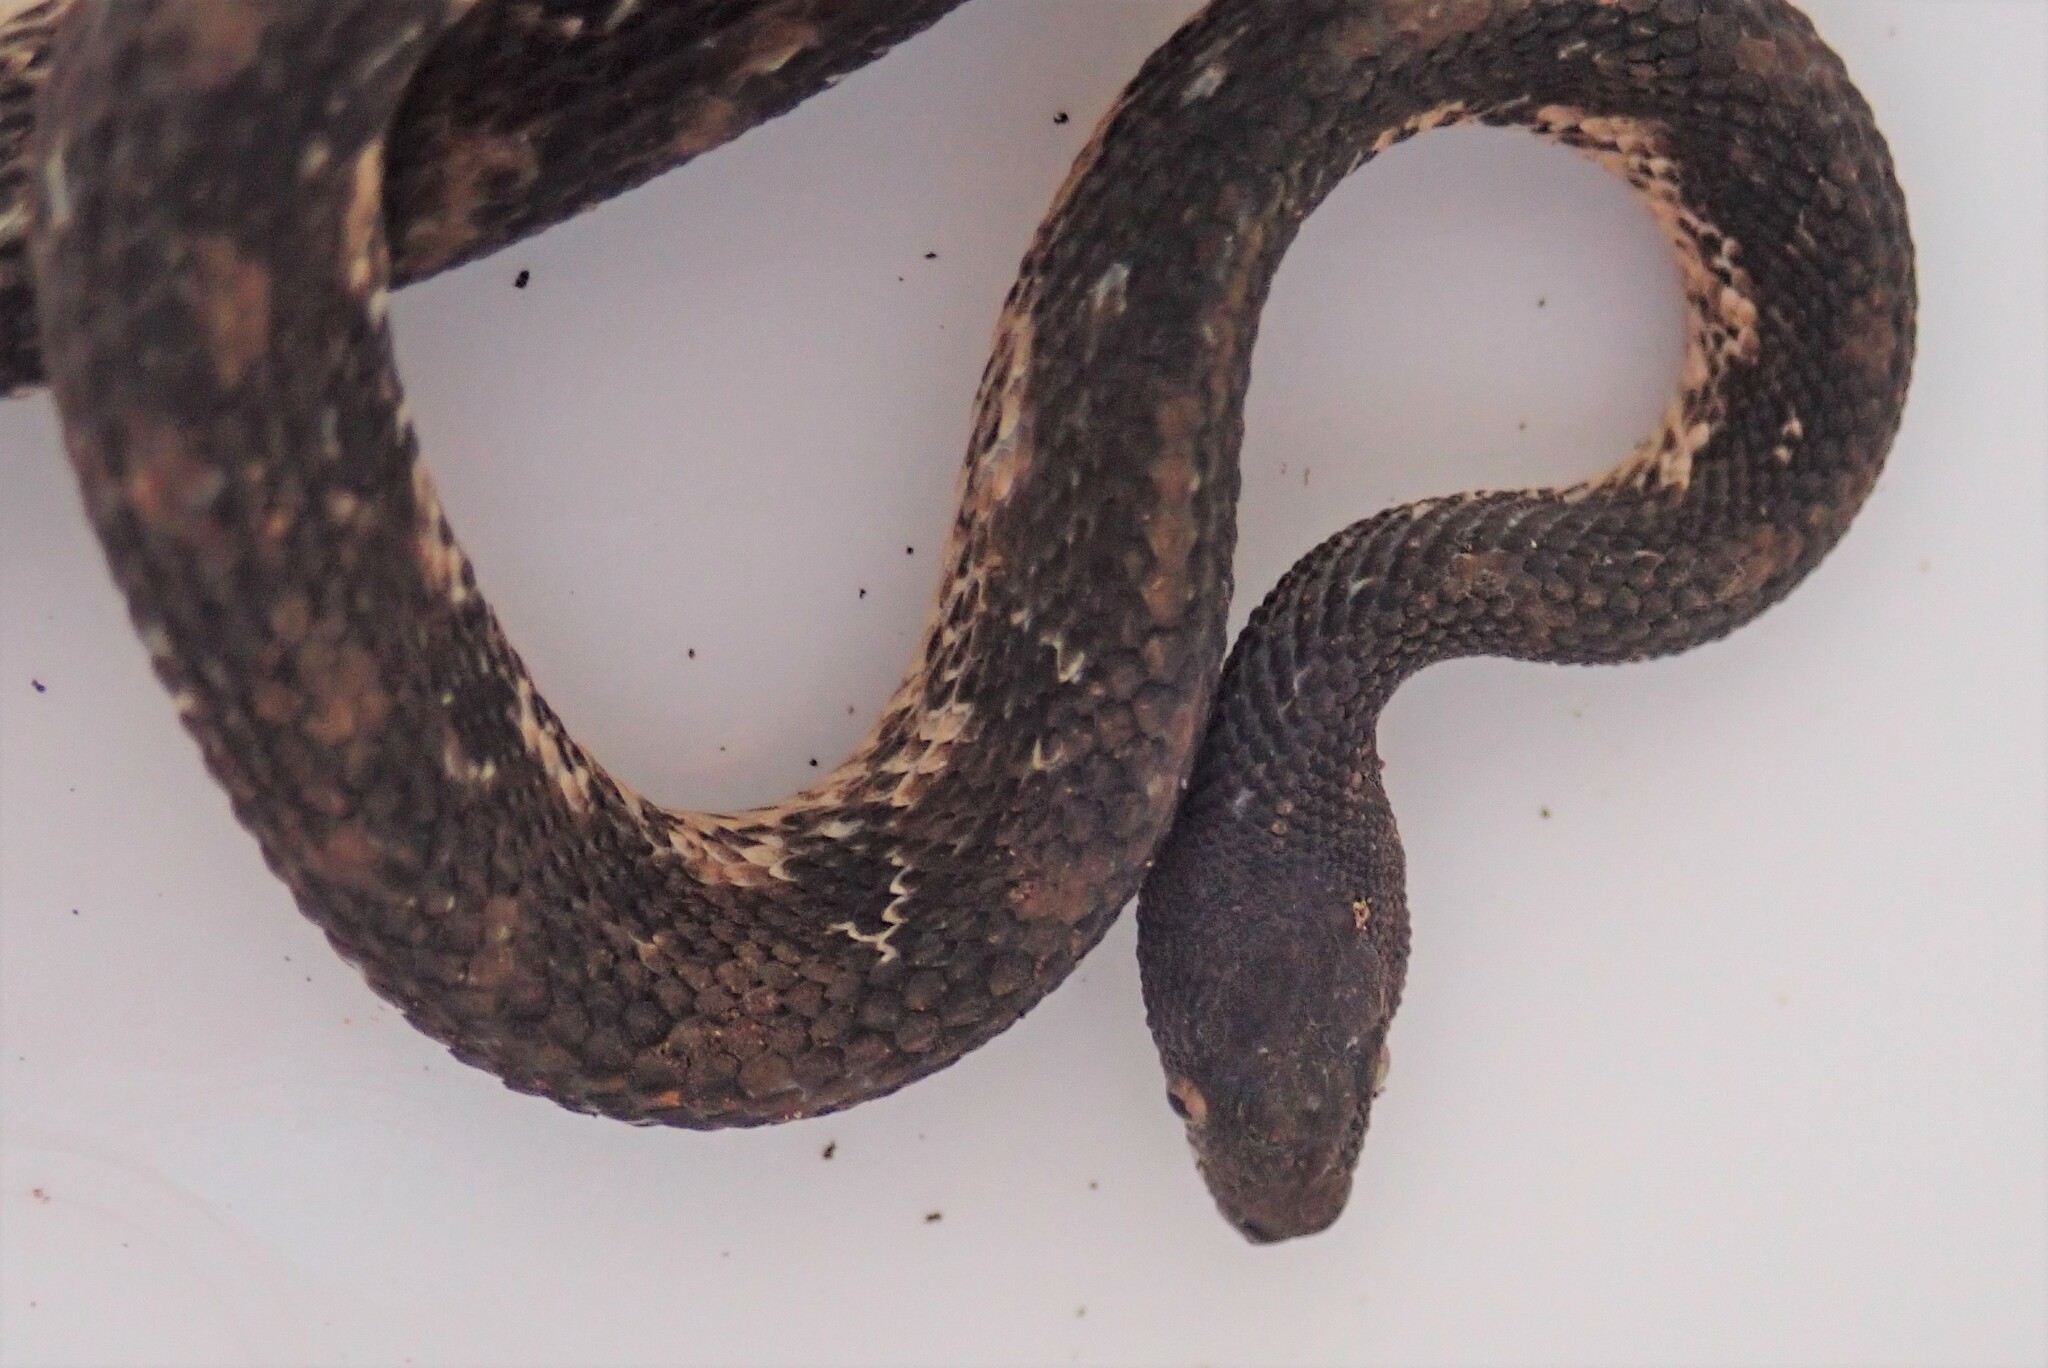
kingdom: Animalia
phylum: Chordata
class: Squamata
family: Colubridae
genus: Nothopsis
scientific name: Nothopsis rugosus
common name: Rough coffee snake
